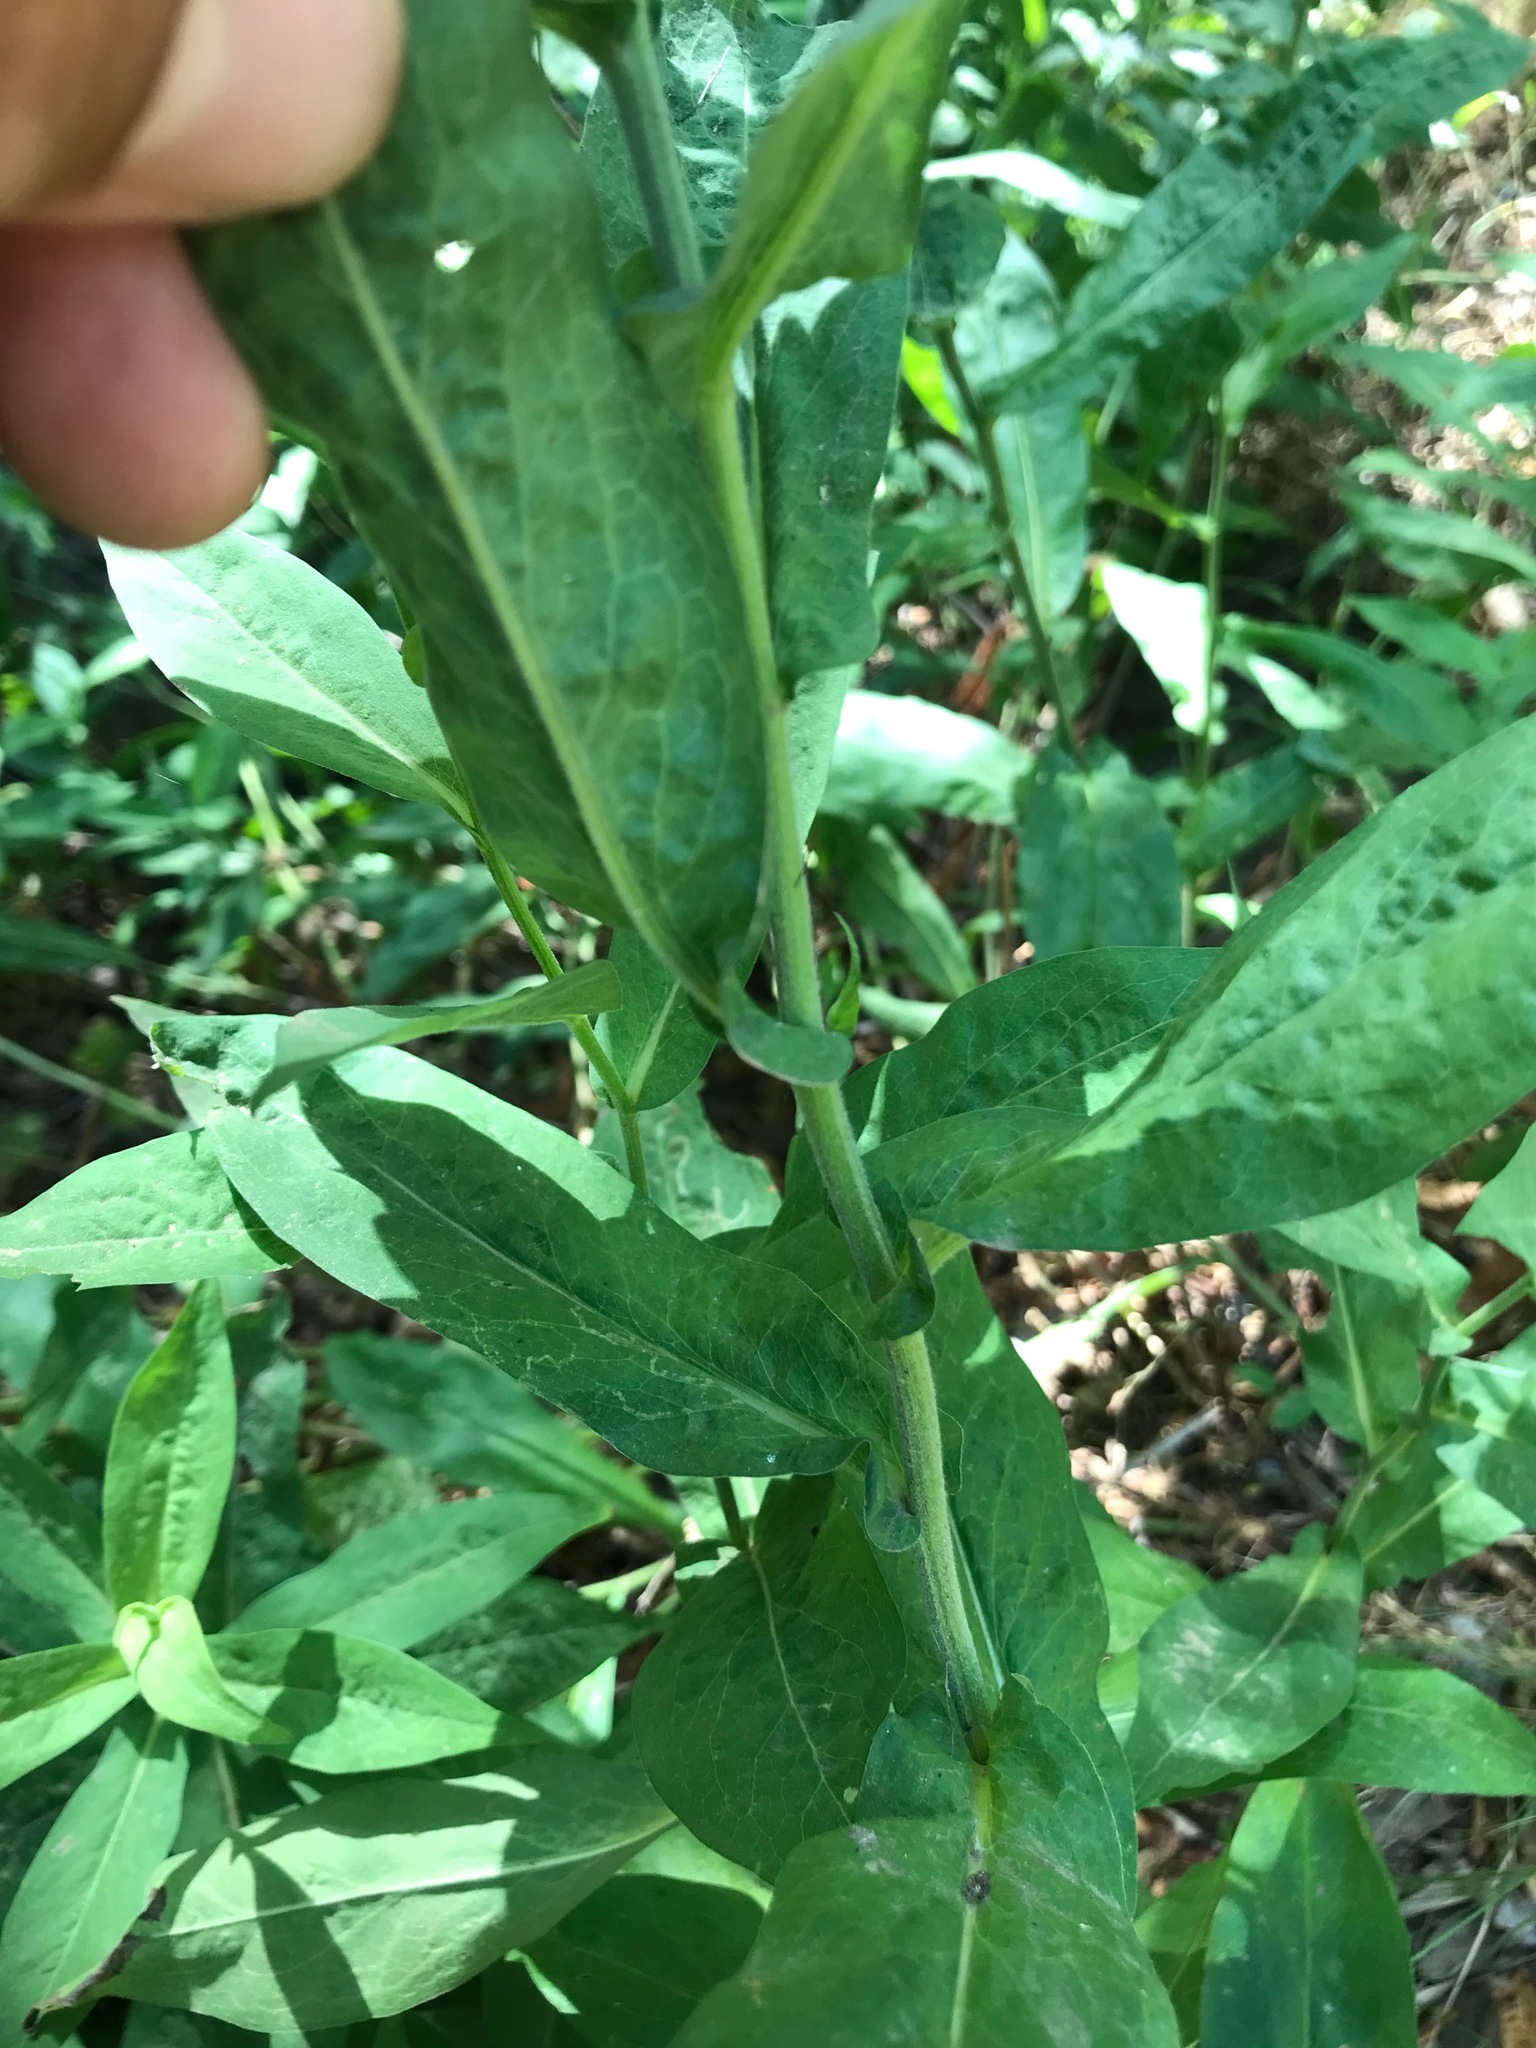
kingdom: Plantae
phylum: Tracheophyta
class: Magnoliopsida
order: Asterales
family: Asteraceae
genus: Symphyotrichum
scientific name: Symphyotrichum greatae
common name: Greata's aster
